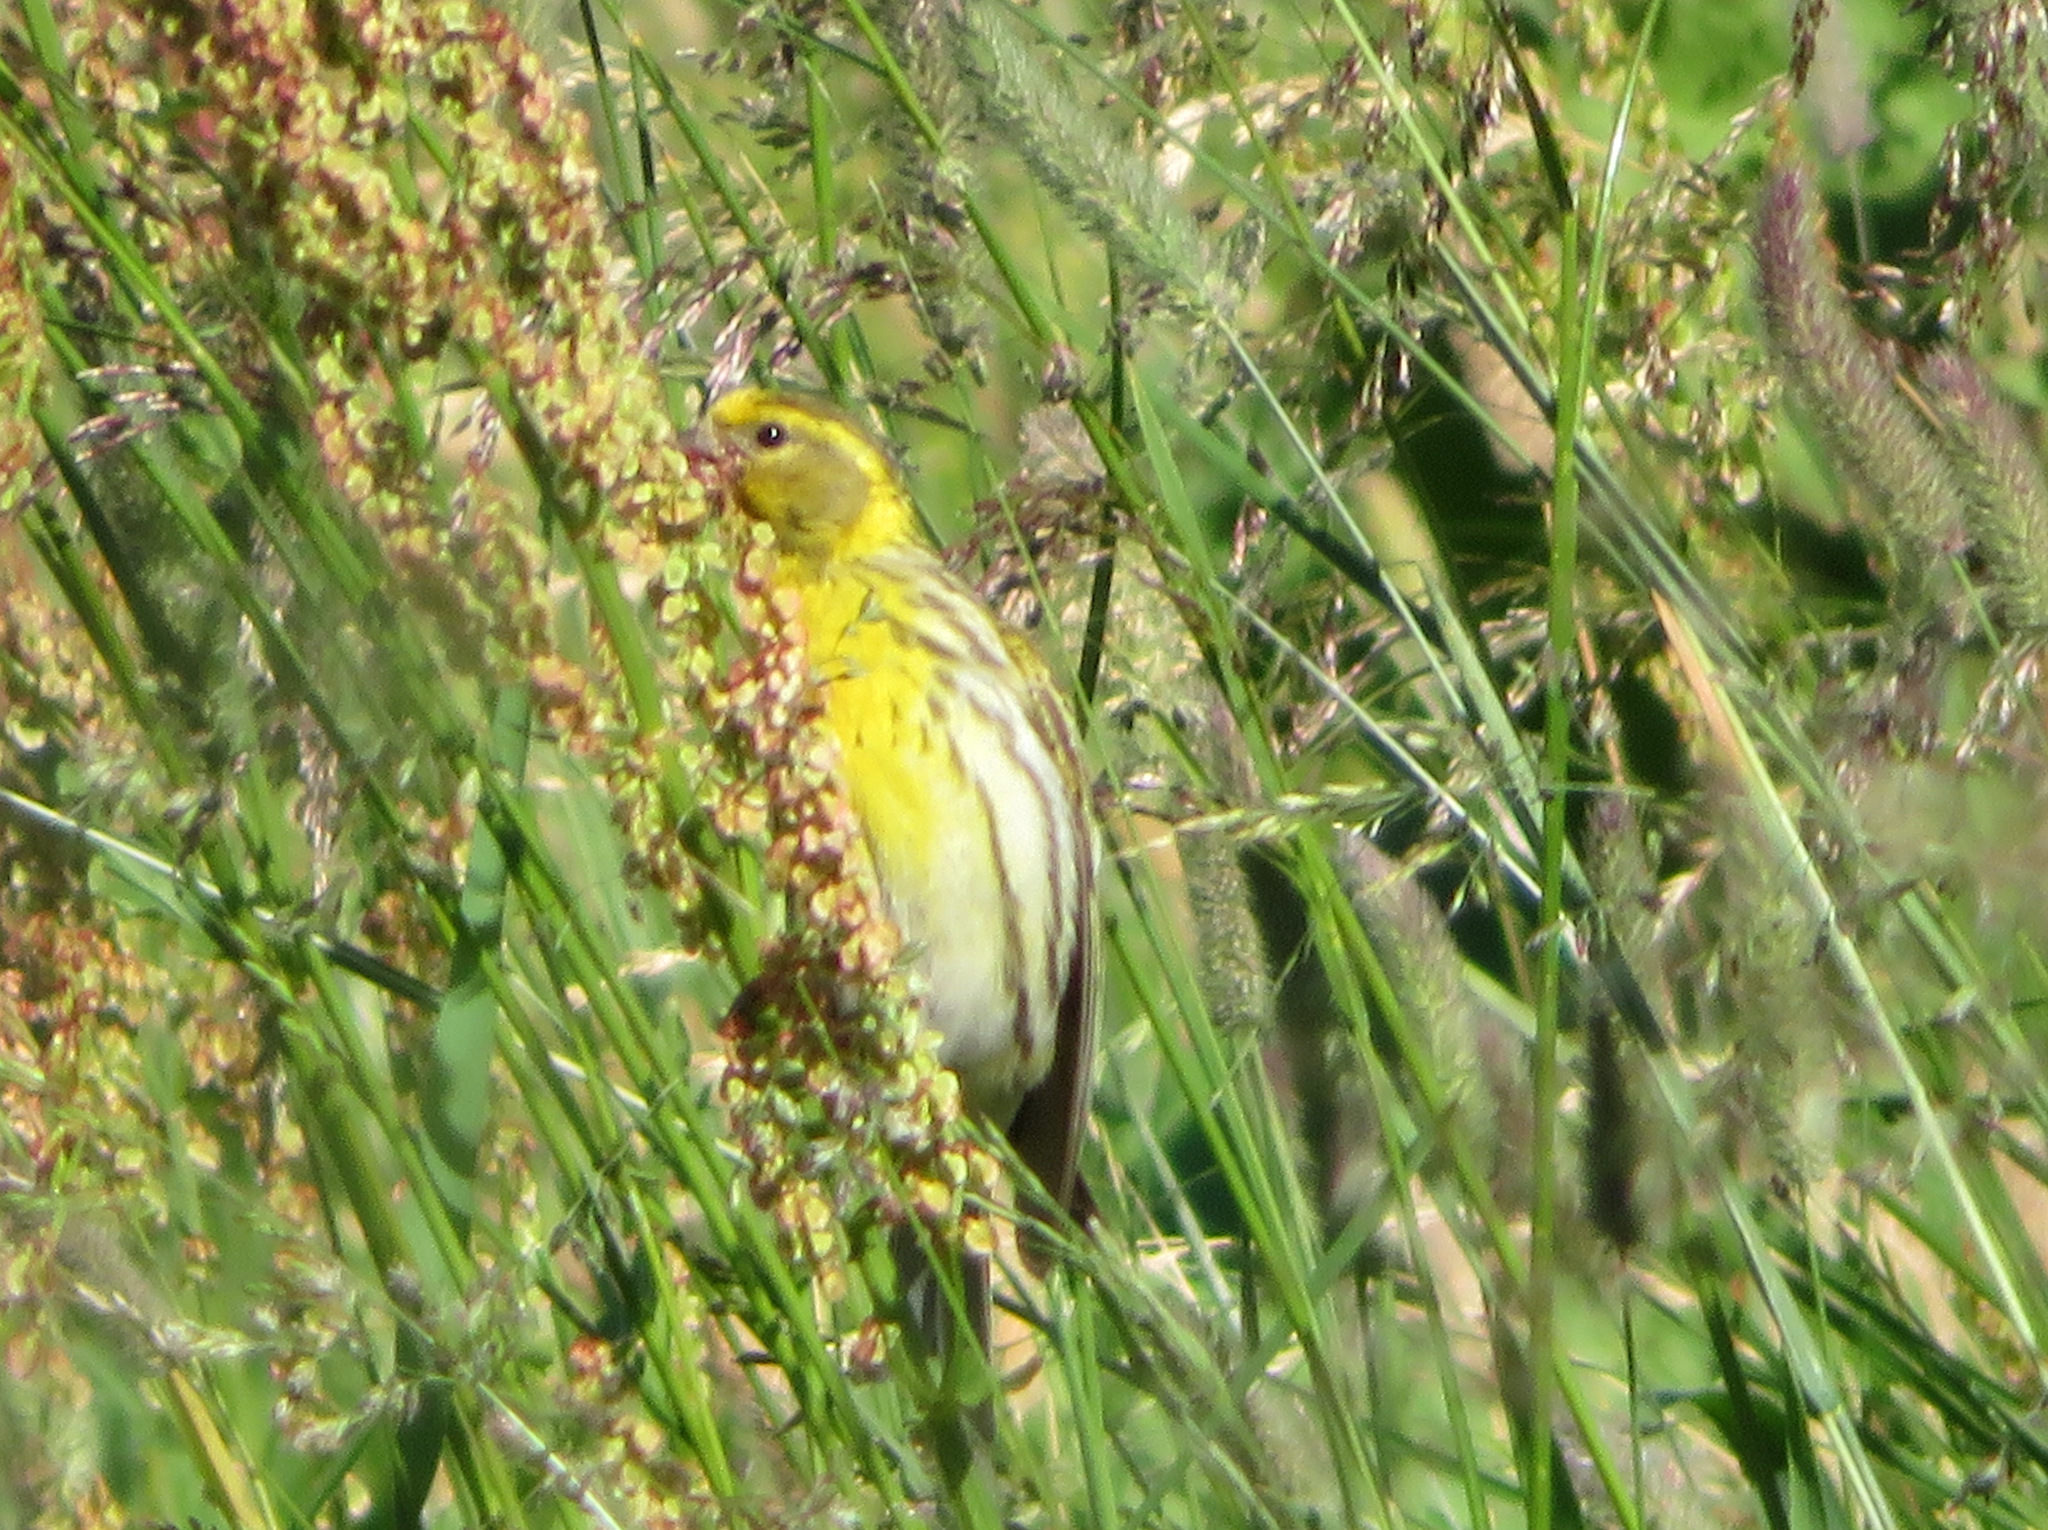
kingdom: Animalia
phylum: Chordata
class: Aves
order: Passeriformes
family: Fringillidae
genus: Serinus
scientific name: Serinus serinus
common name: European serin
